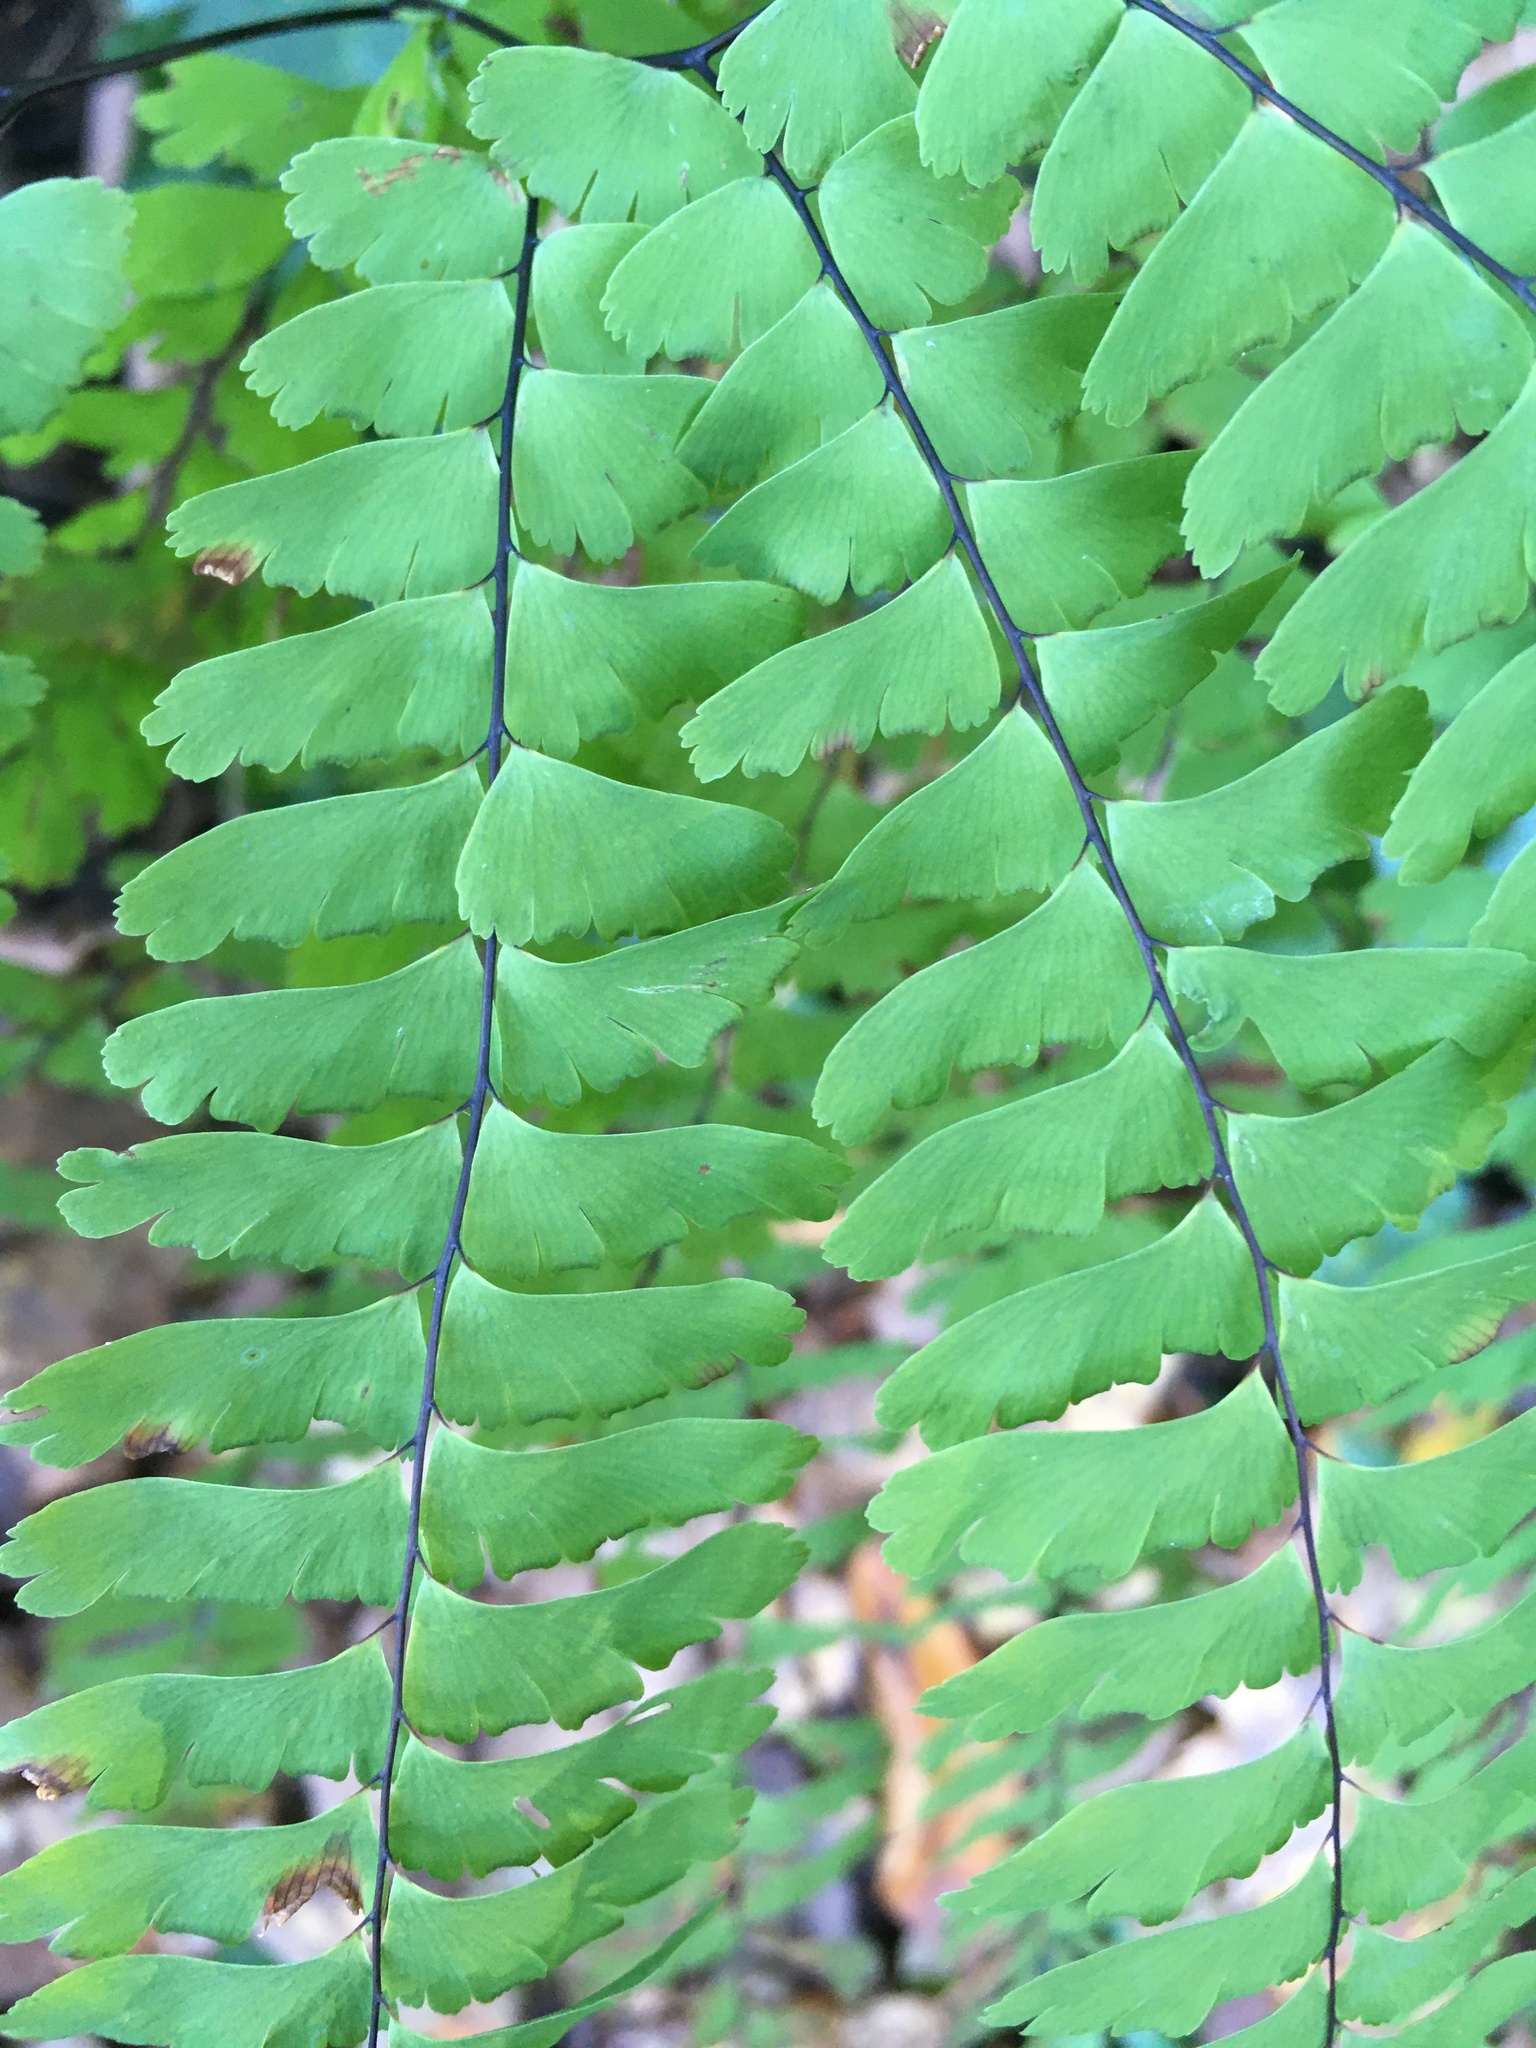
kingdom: Plantae
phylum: Tracheophyta
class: Polypodiopsida
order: Polypodiales
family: Pteridaceae
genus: Adiantum
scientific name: Adiantum pedatum
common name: Five-finger fern
